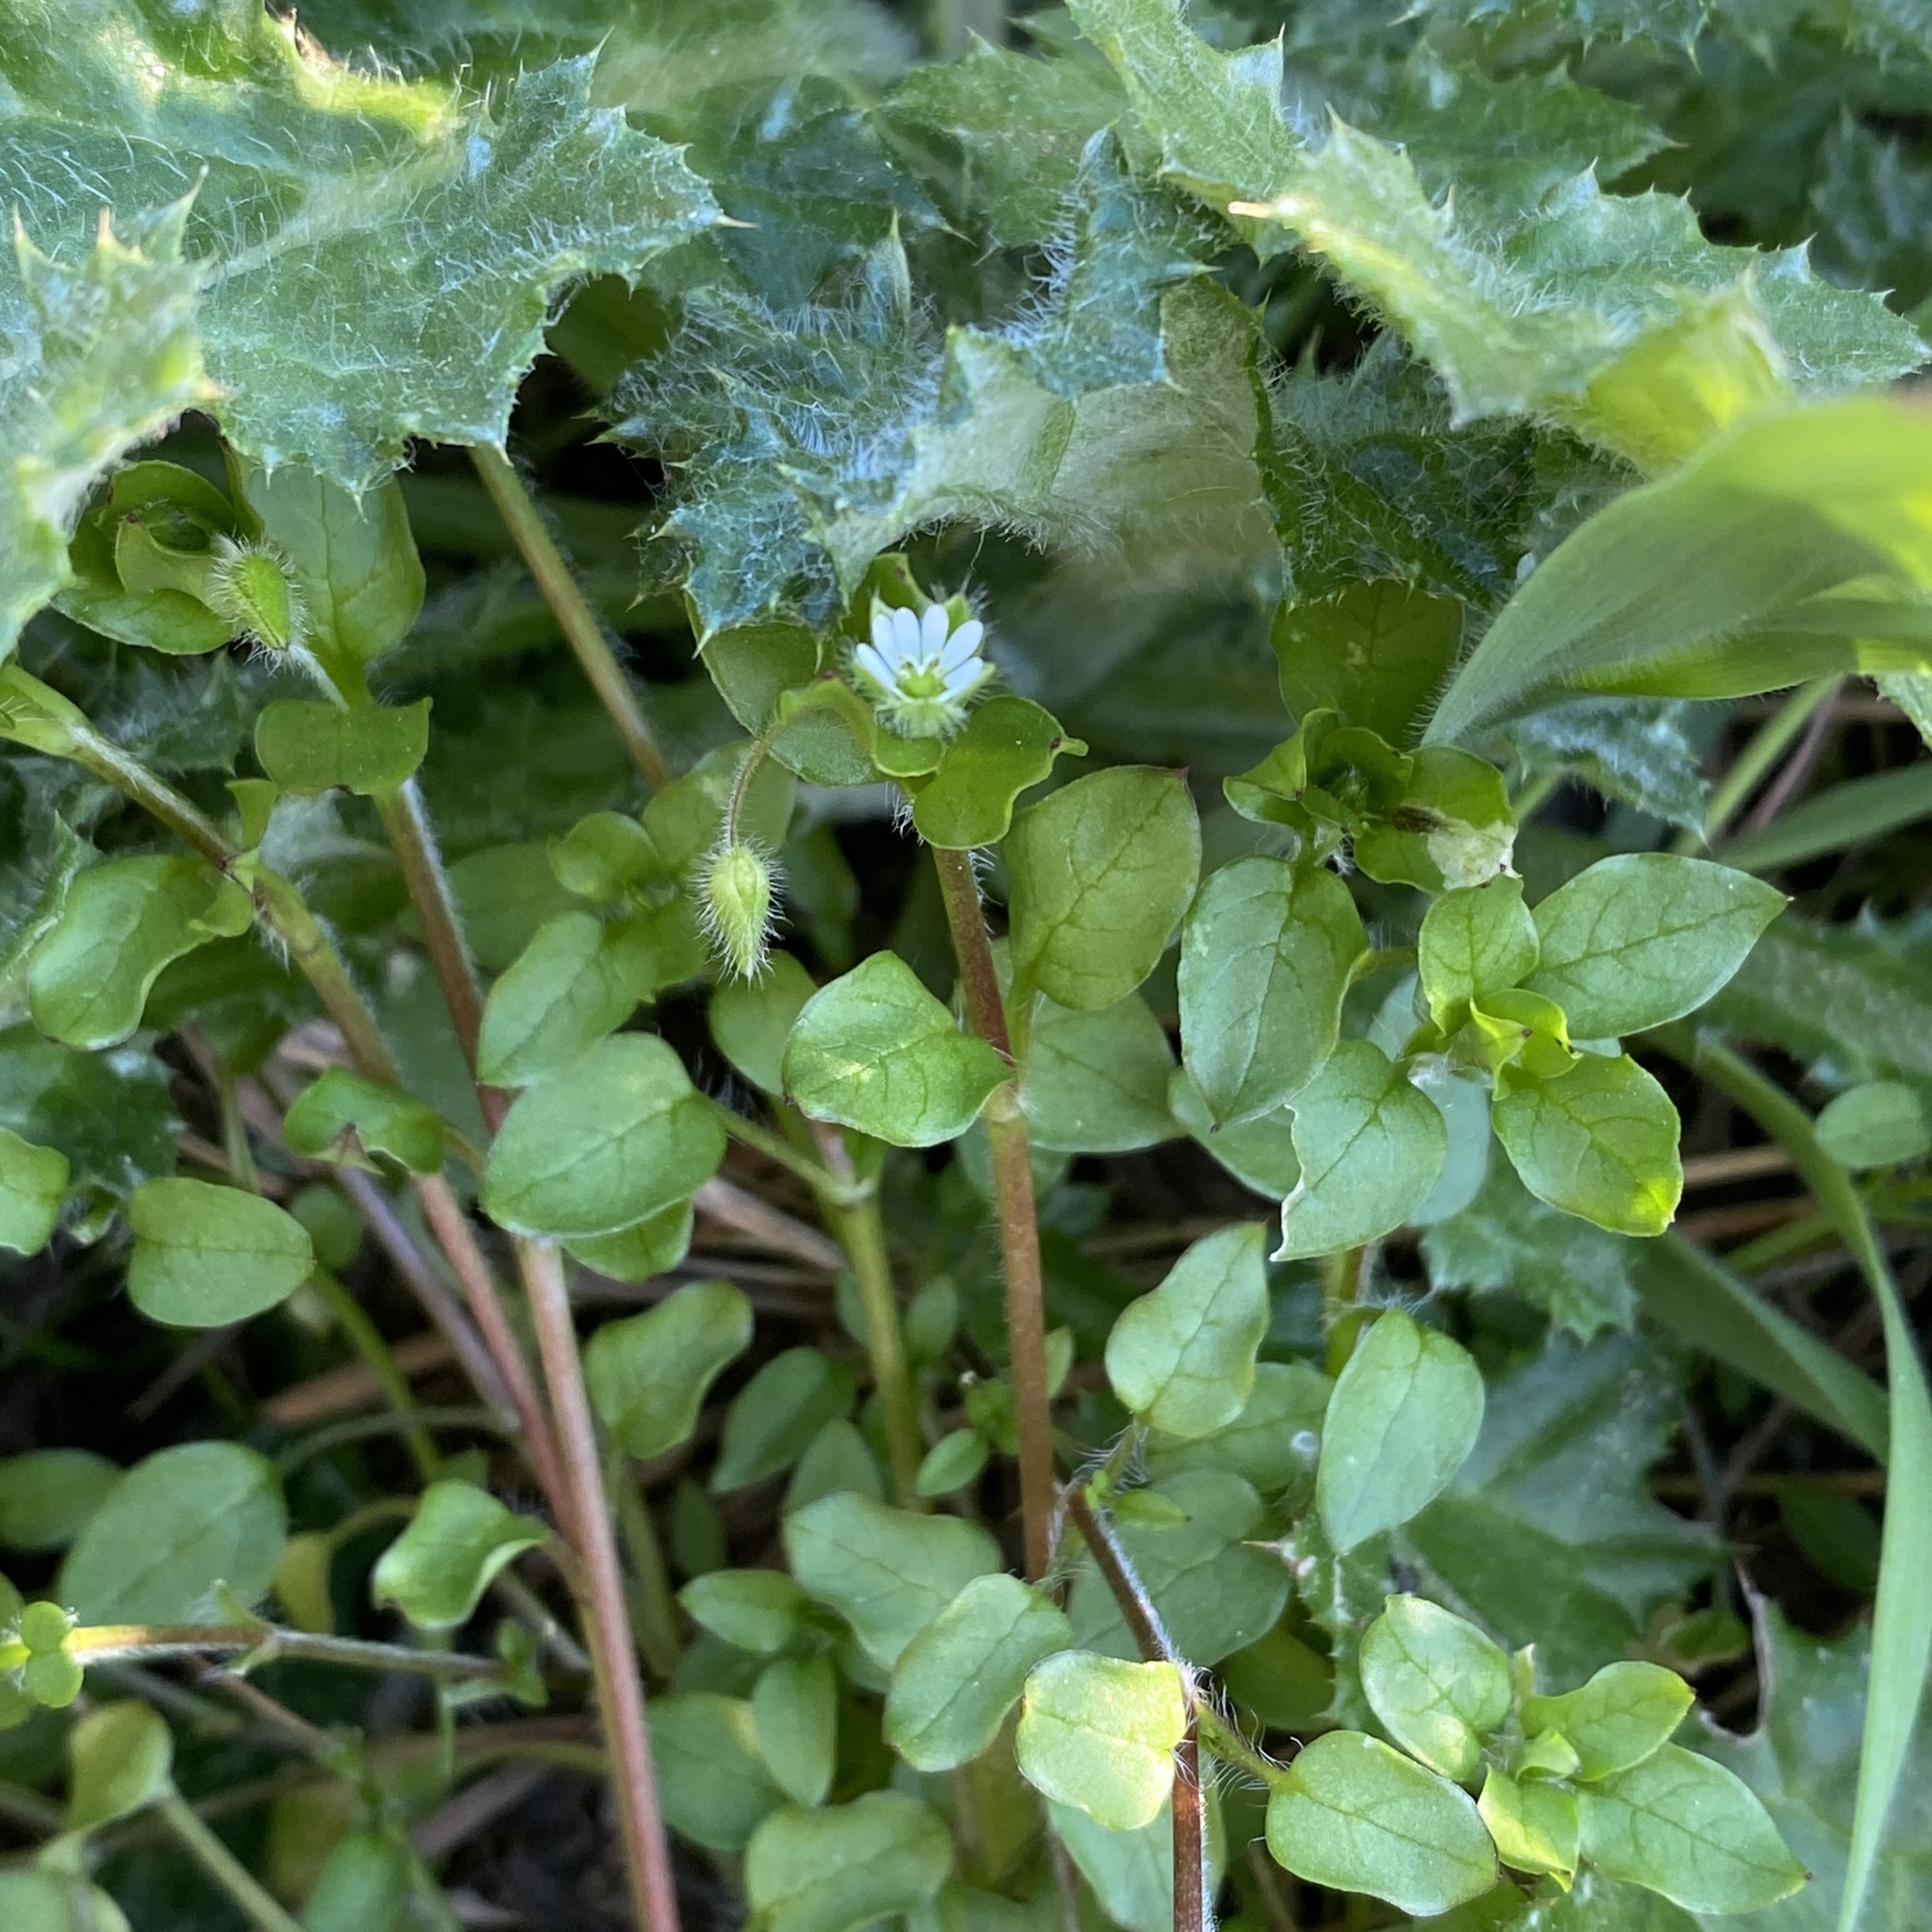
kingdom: Plantae
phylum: Tracheophyta
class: Magnoliopsida
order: Caryophyllales
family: Caryophyllaceae
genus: Stellaria
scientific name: Stellaria media
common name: Common chickweed
